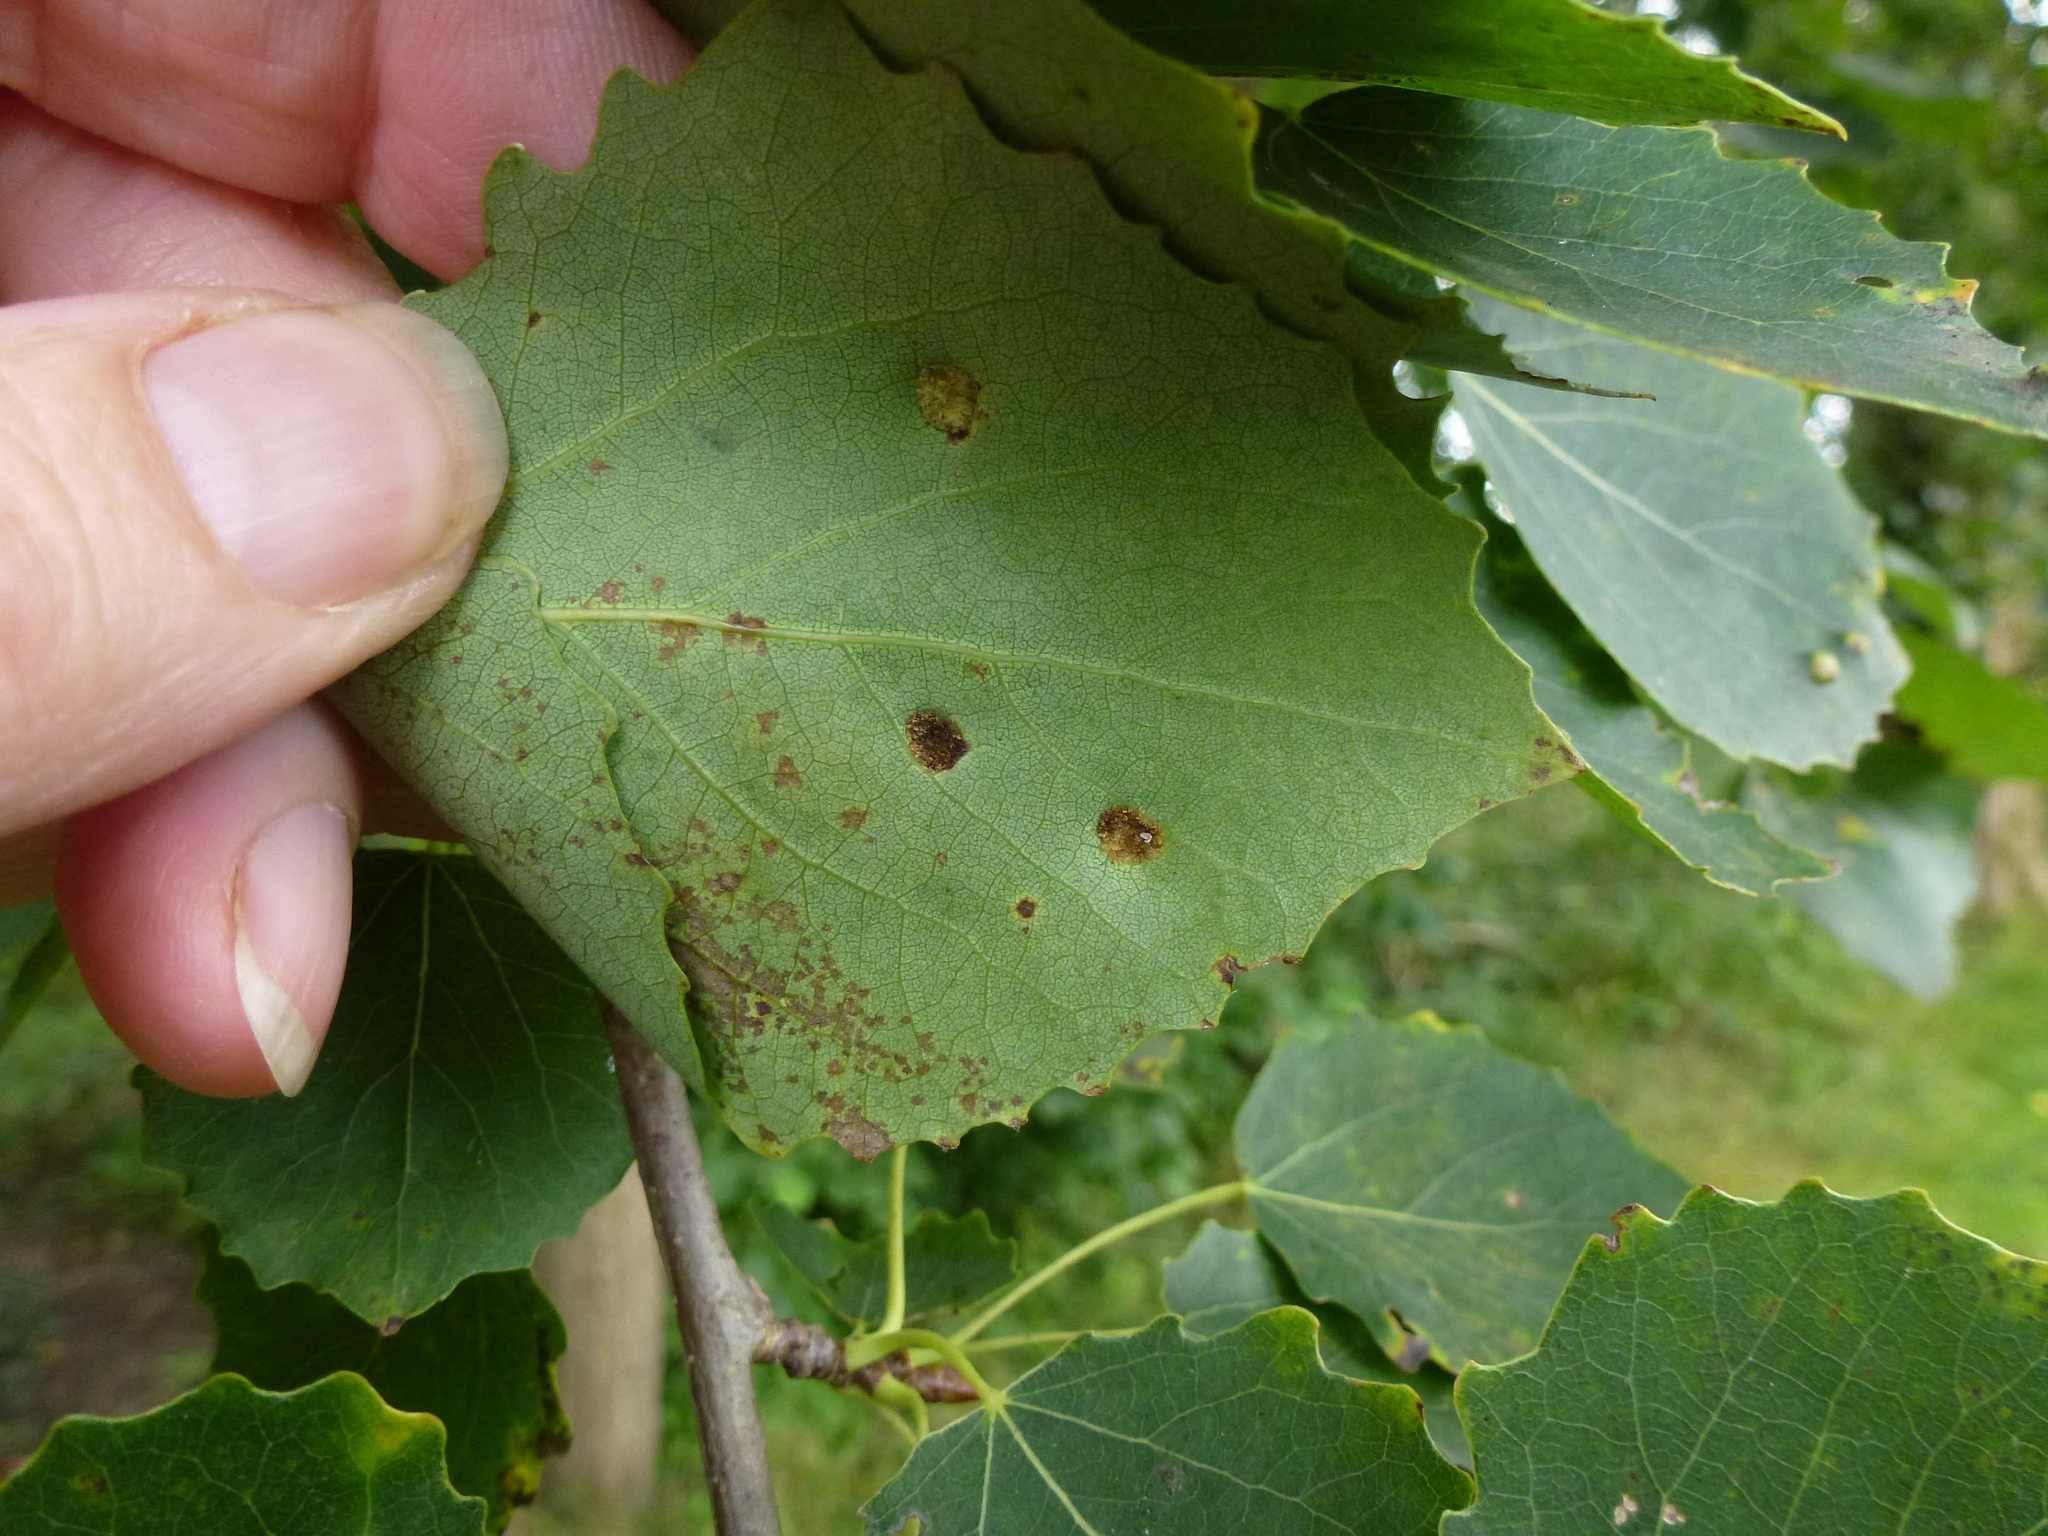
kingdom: Animalia
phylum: Arthropoda
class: Arachnida
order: Trombidiformes
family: Eriophyidae
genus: Phyllocoptes
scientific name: Phyllocoptes populi
